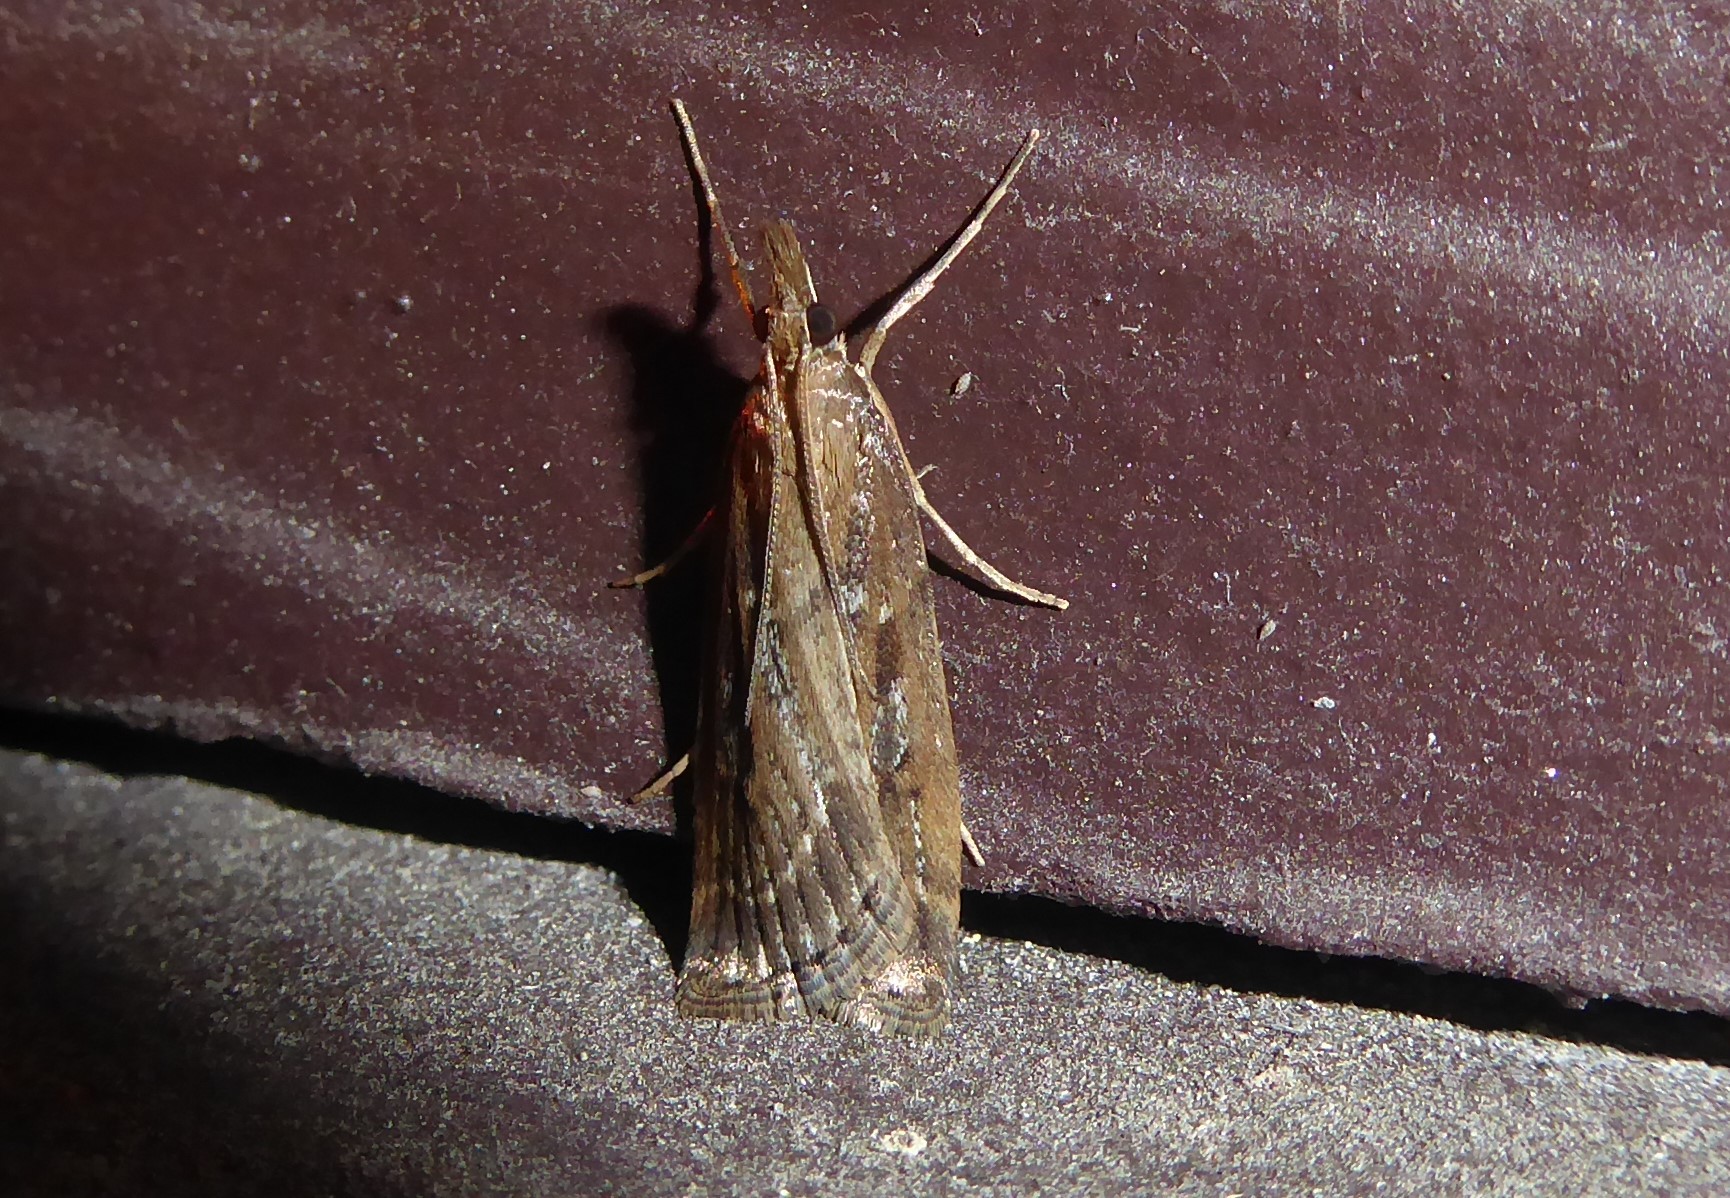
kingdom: Animalia
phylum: Arthropoda
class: Insecta
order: Lepidoptera
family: Crambidae
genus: Eudonia
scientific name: Eudonia octophora
